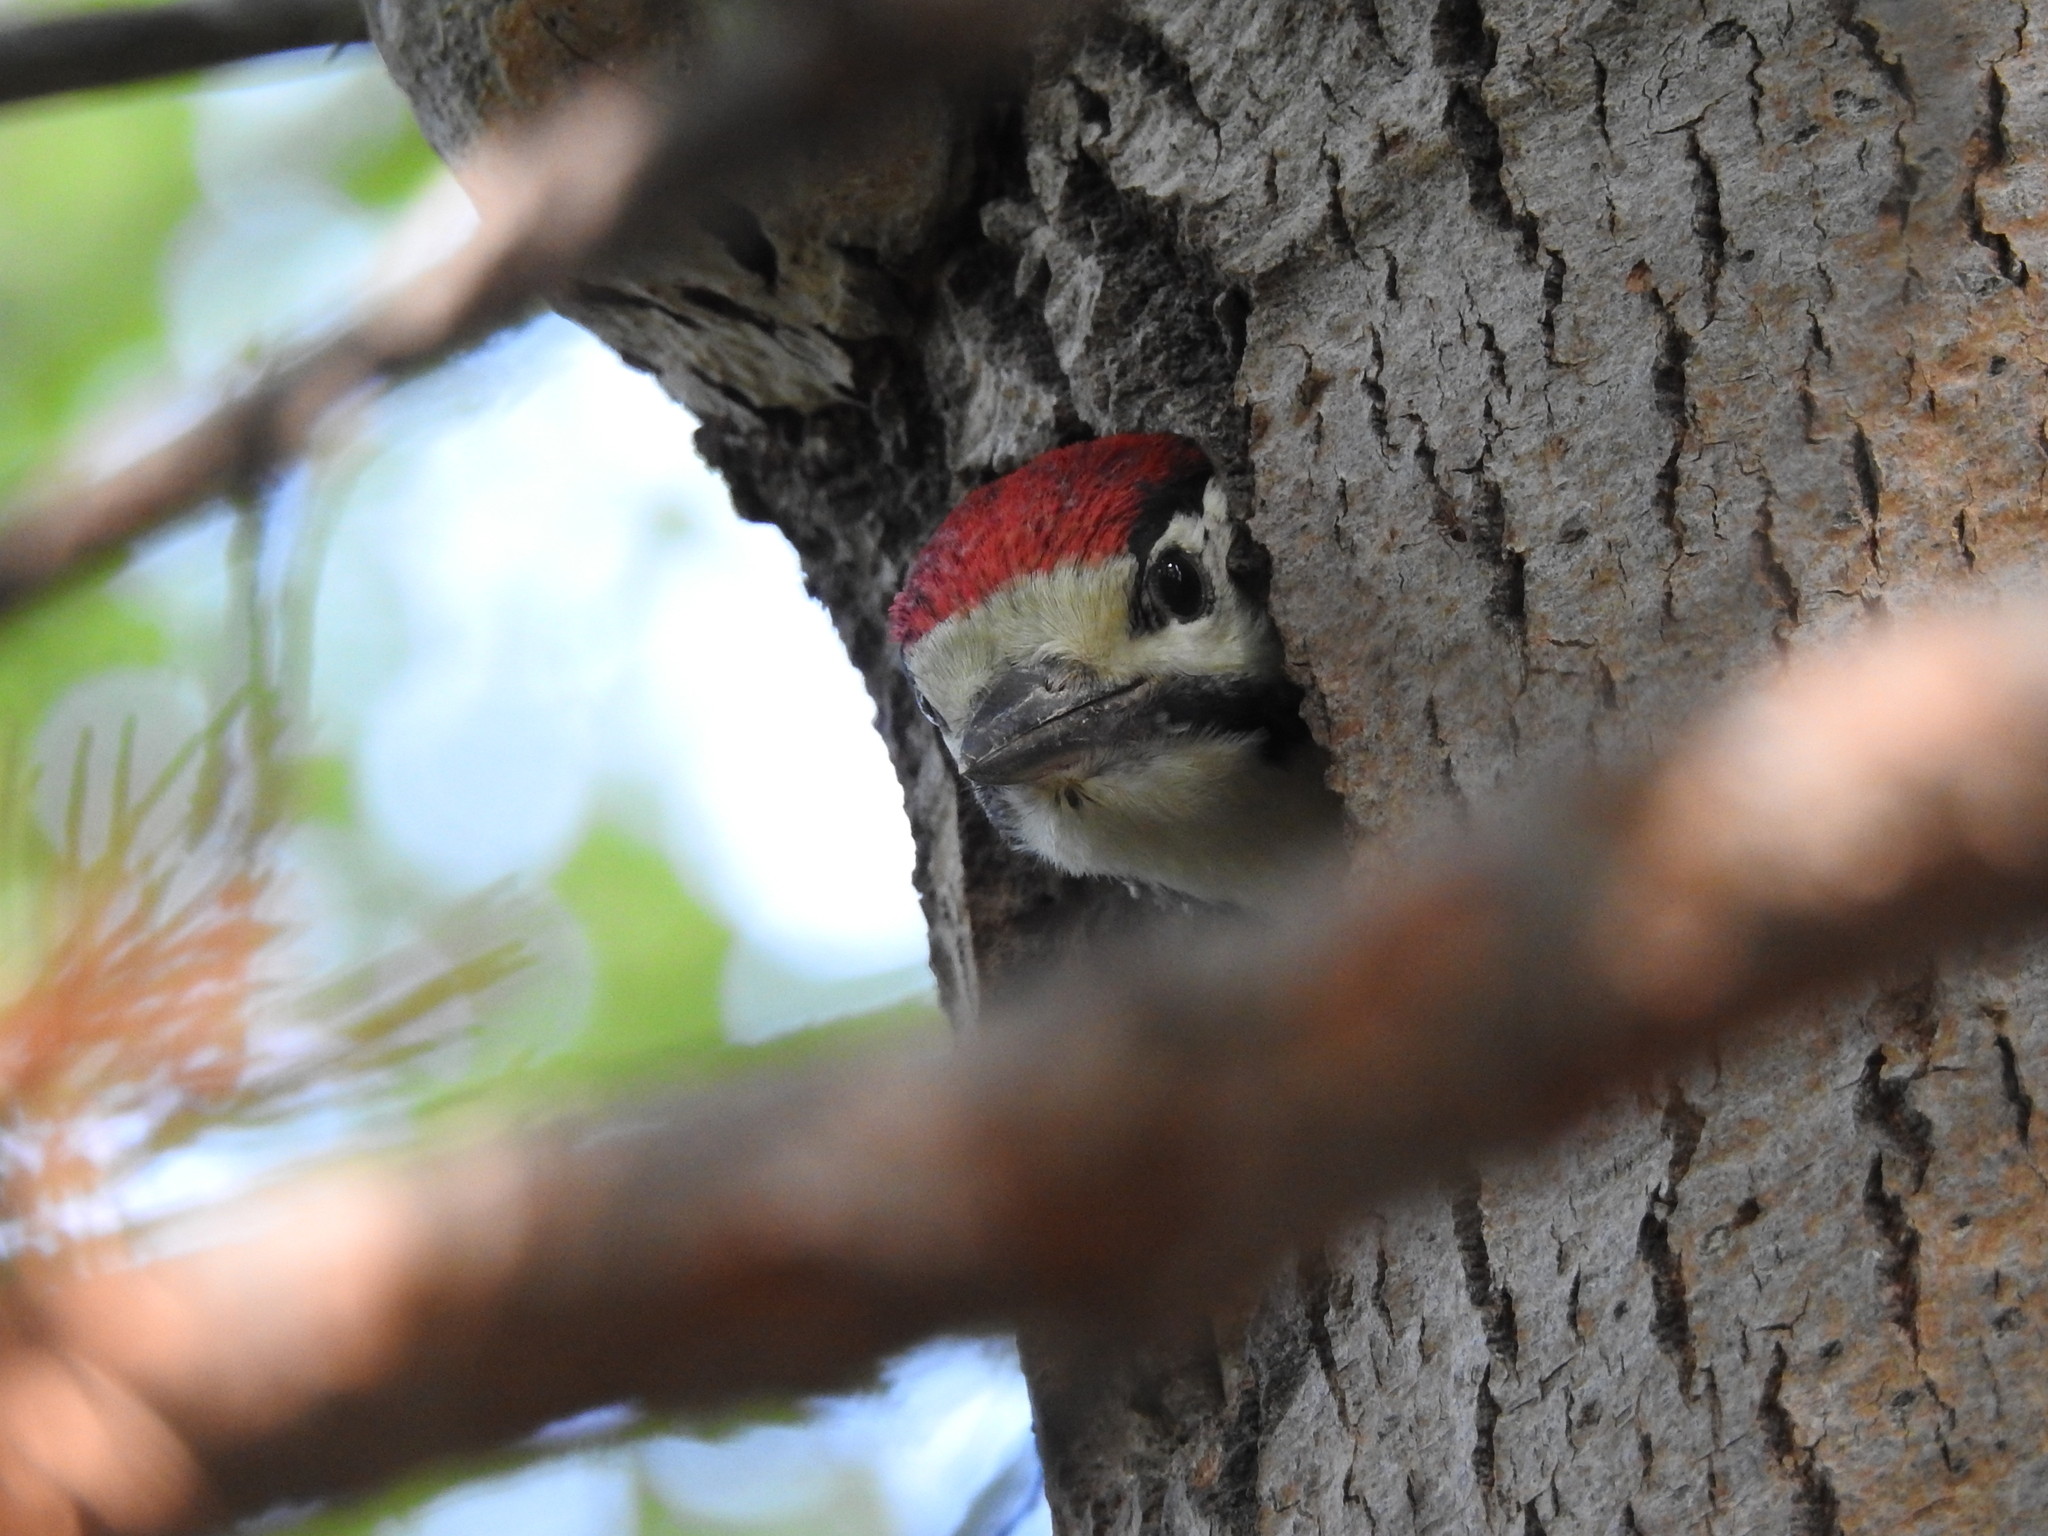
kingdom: Animalia
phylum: Chordata
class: Aves
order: Piciformes
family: Picidae
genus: Dendrocopos
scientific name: Dendrocopos major
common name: Great spotted woodpecker
